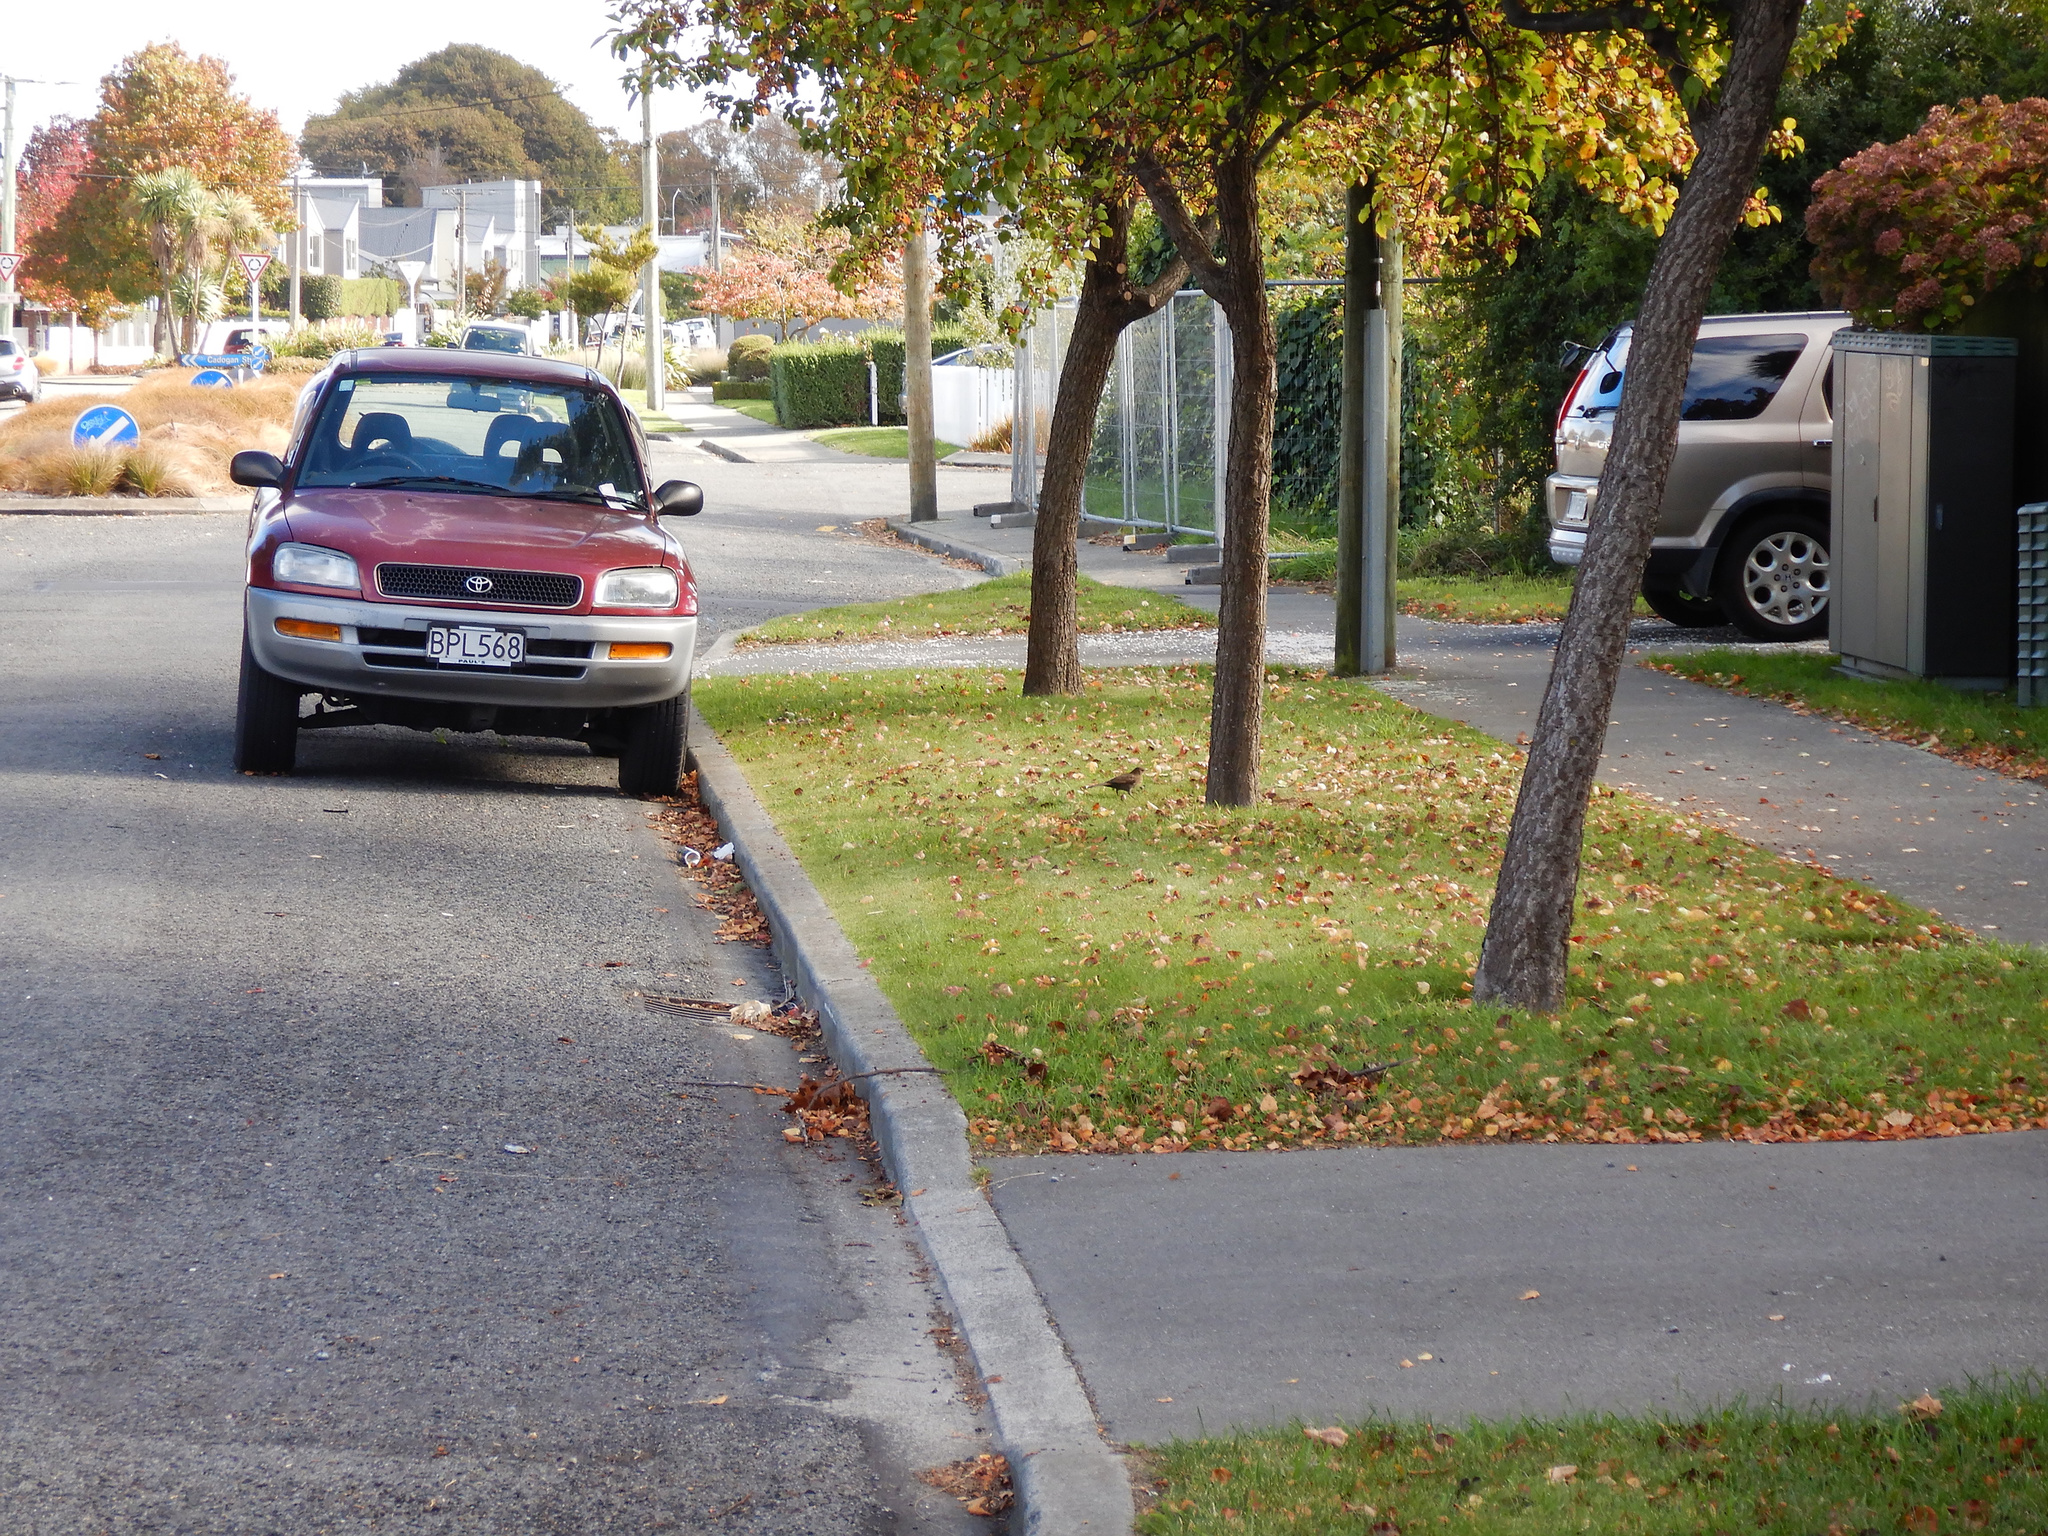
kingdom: Animalia
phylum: Chordata
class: Aves
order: Passeriformes
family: Turdidae
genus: Turdus
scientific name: Turdus merula
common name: Common blackbird
